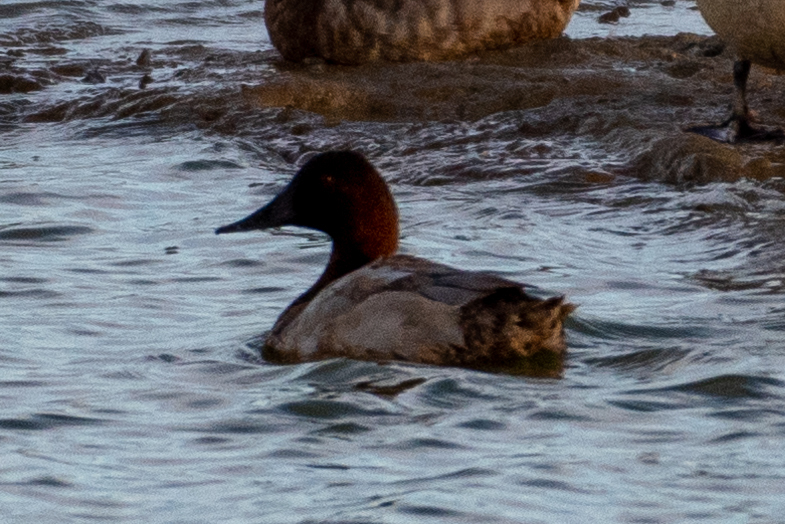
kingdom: Animalia
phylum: Chordata
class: Aves
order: Anseriformes
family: Anatidae
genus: Aythya
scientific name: Aythya valisineria
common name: Canvasback
